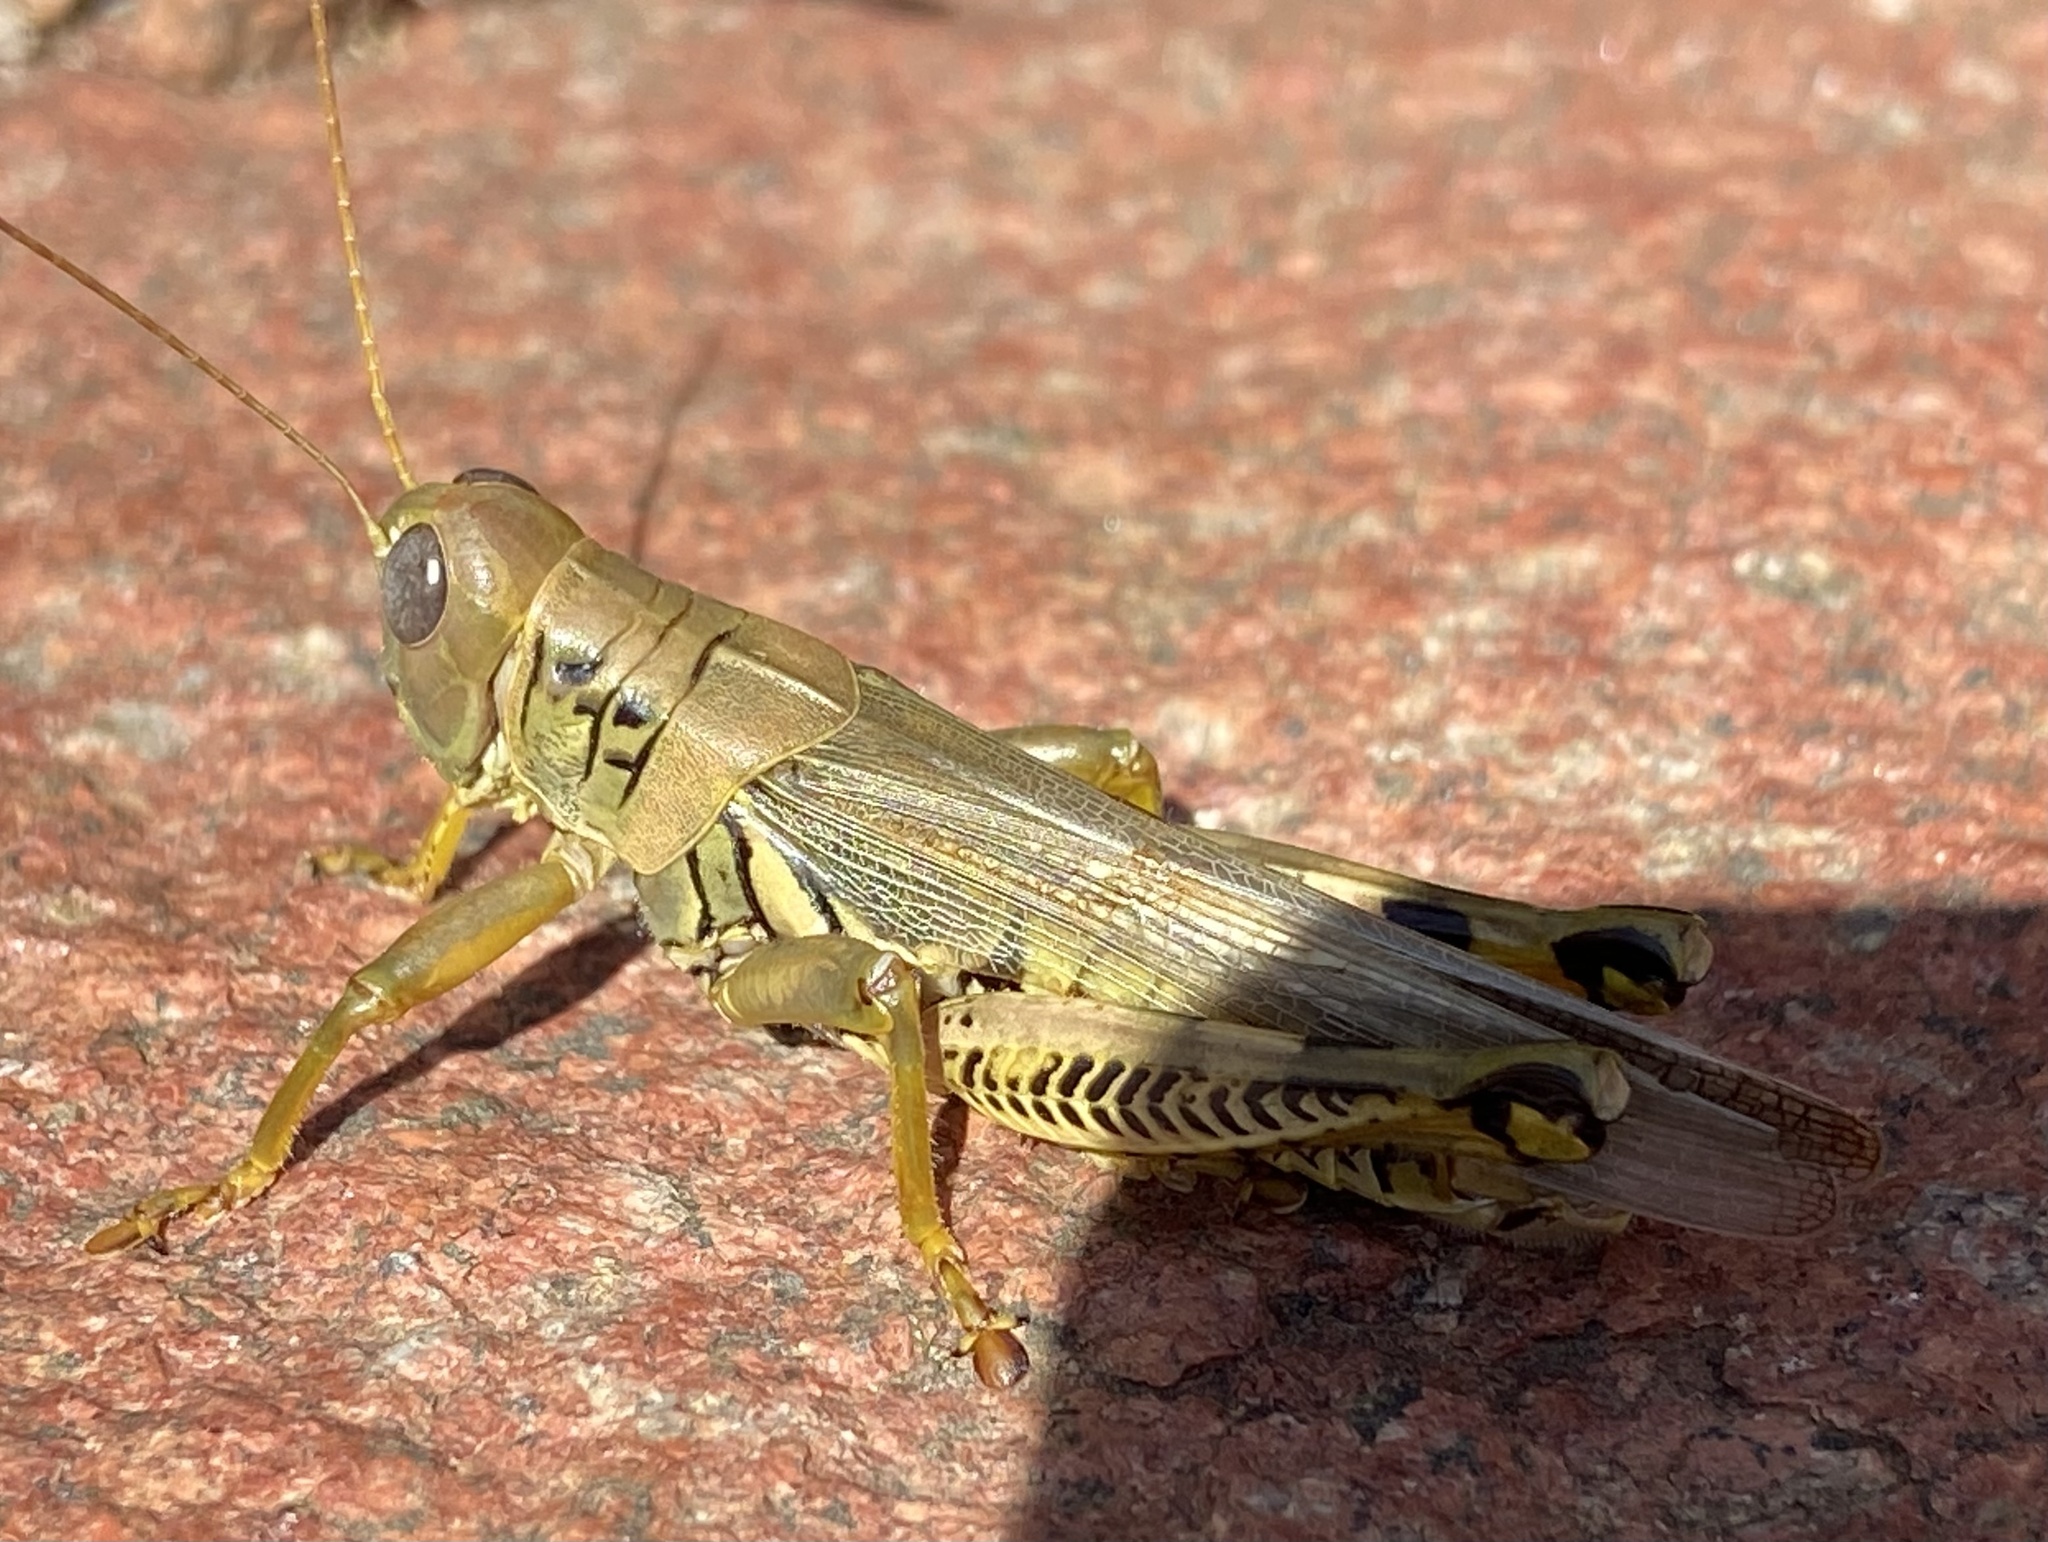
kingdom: Animalia
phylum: Arthropoda
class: Insecta
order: Orthoptera
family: Acrididae
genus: Melanoplus
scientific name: Melanoplus differentialis
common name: Differential grasshopper
